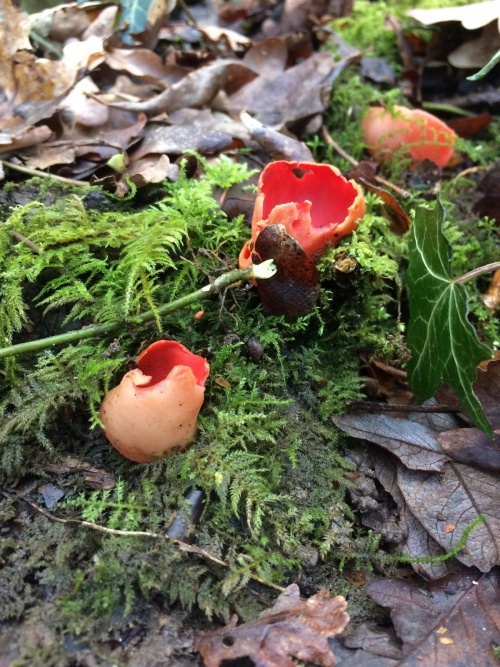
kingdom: Fungi
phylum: Ascomycota
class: Pezizomycetes
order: Pezizales
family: Sarcoscyphaceae
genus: Sarcoscypha
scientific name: Sarcoscypha
